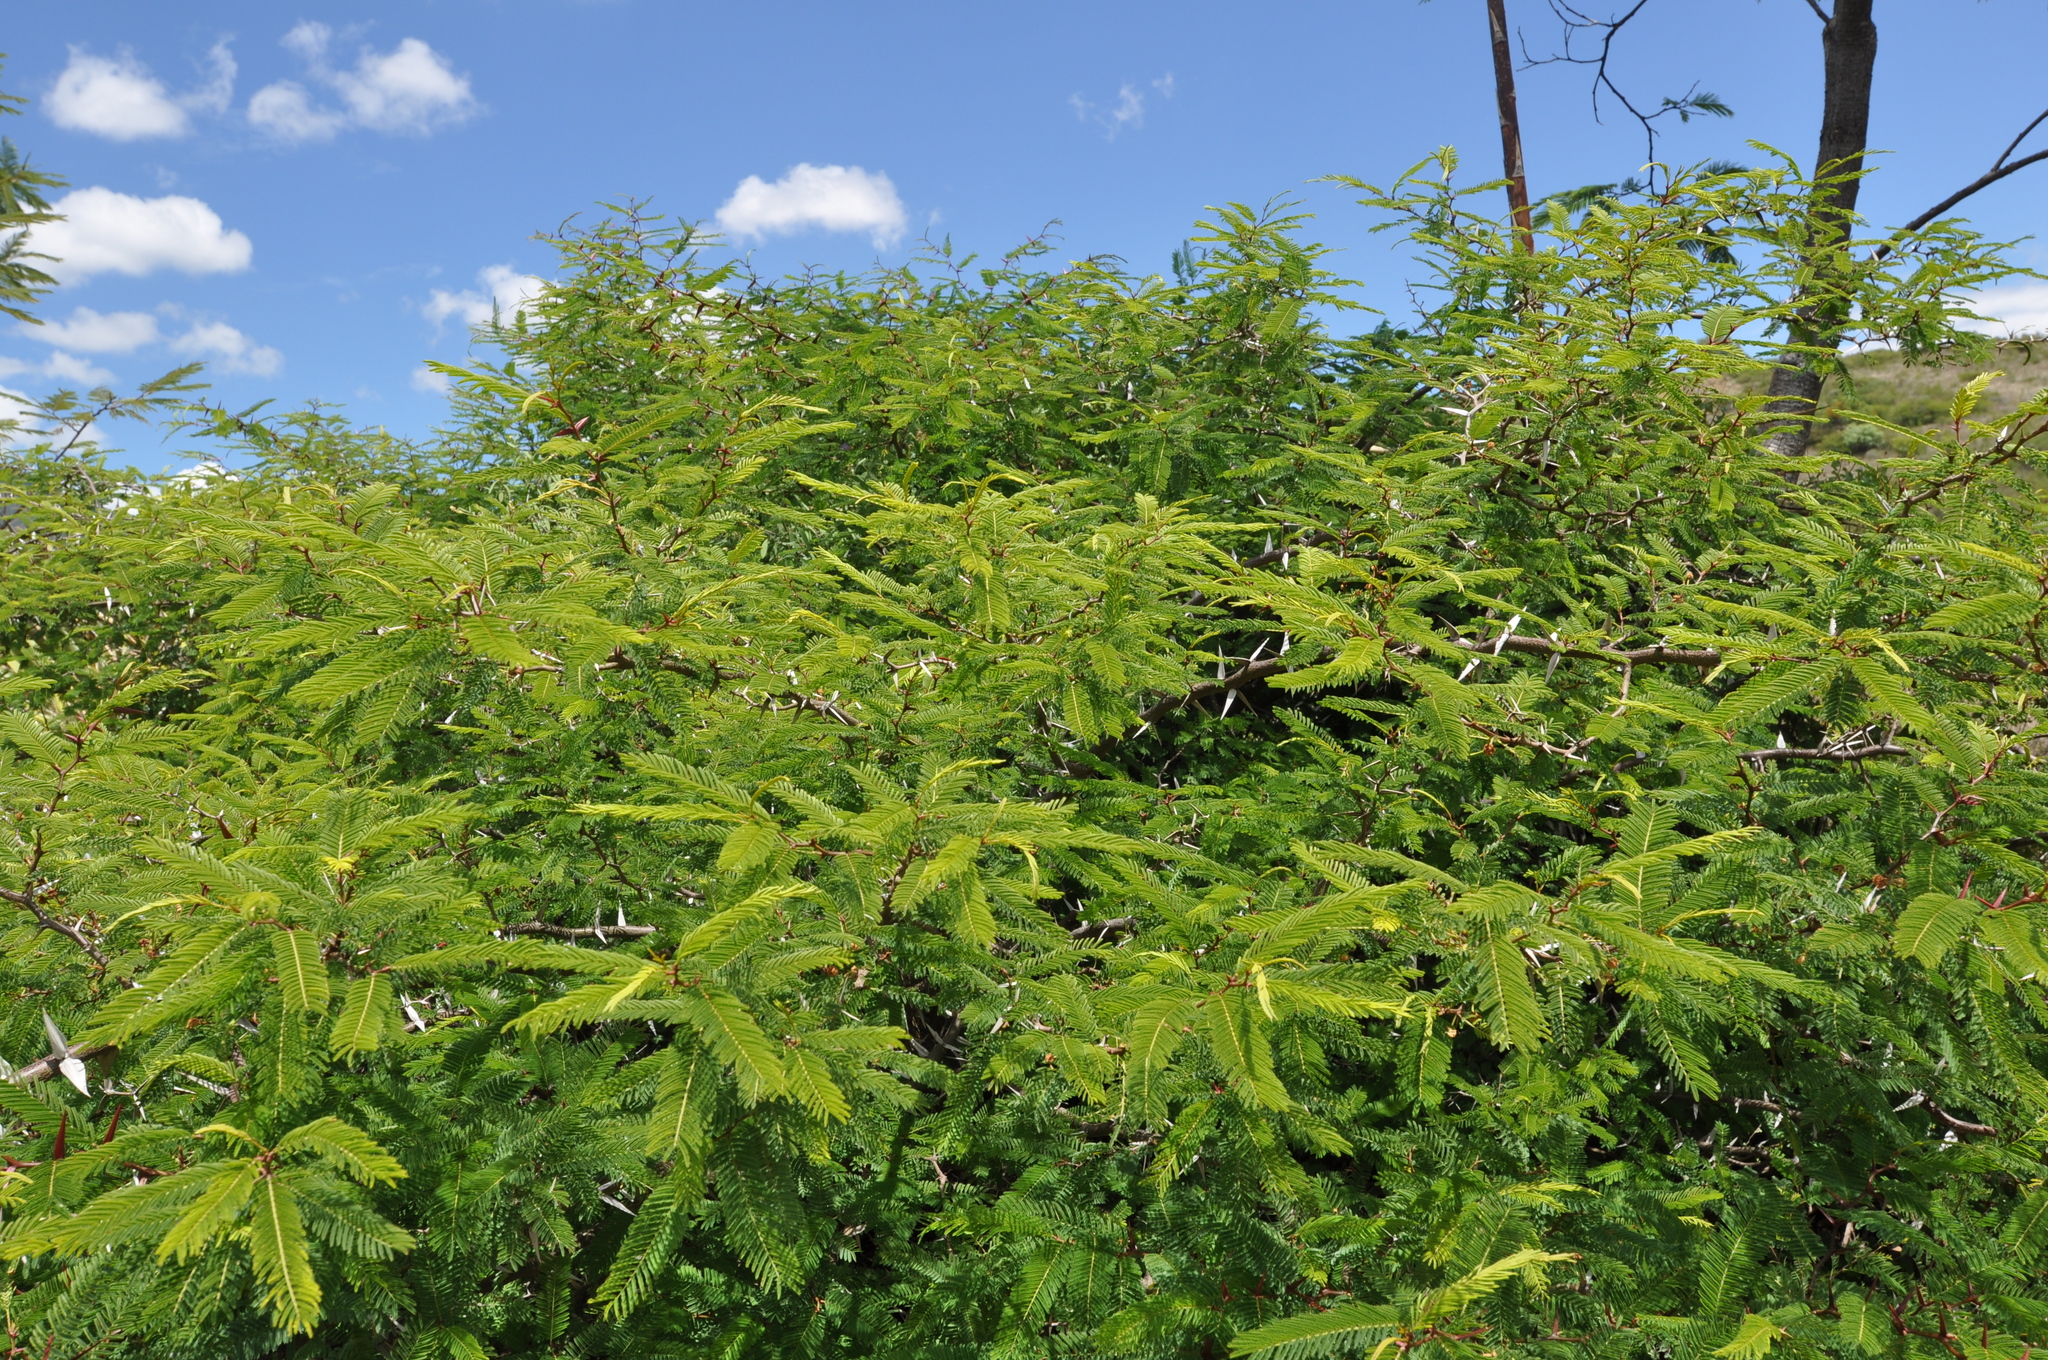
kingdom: Plantae
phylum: Tracheophyta
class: Magnoliopsida
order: Fabales
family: Fabaceae
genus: Vachellia
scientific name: Vachellia campechiana
